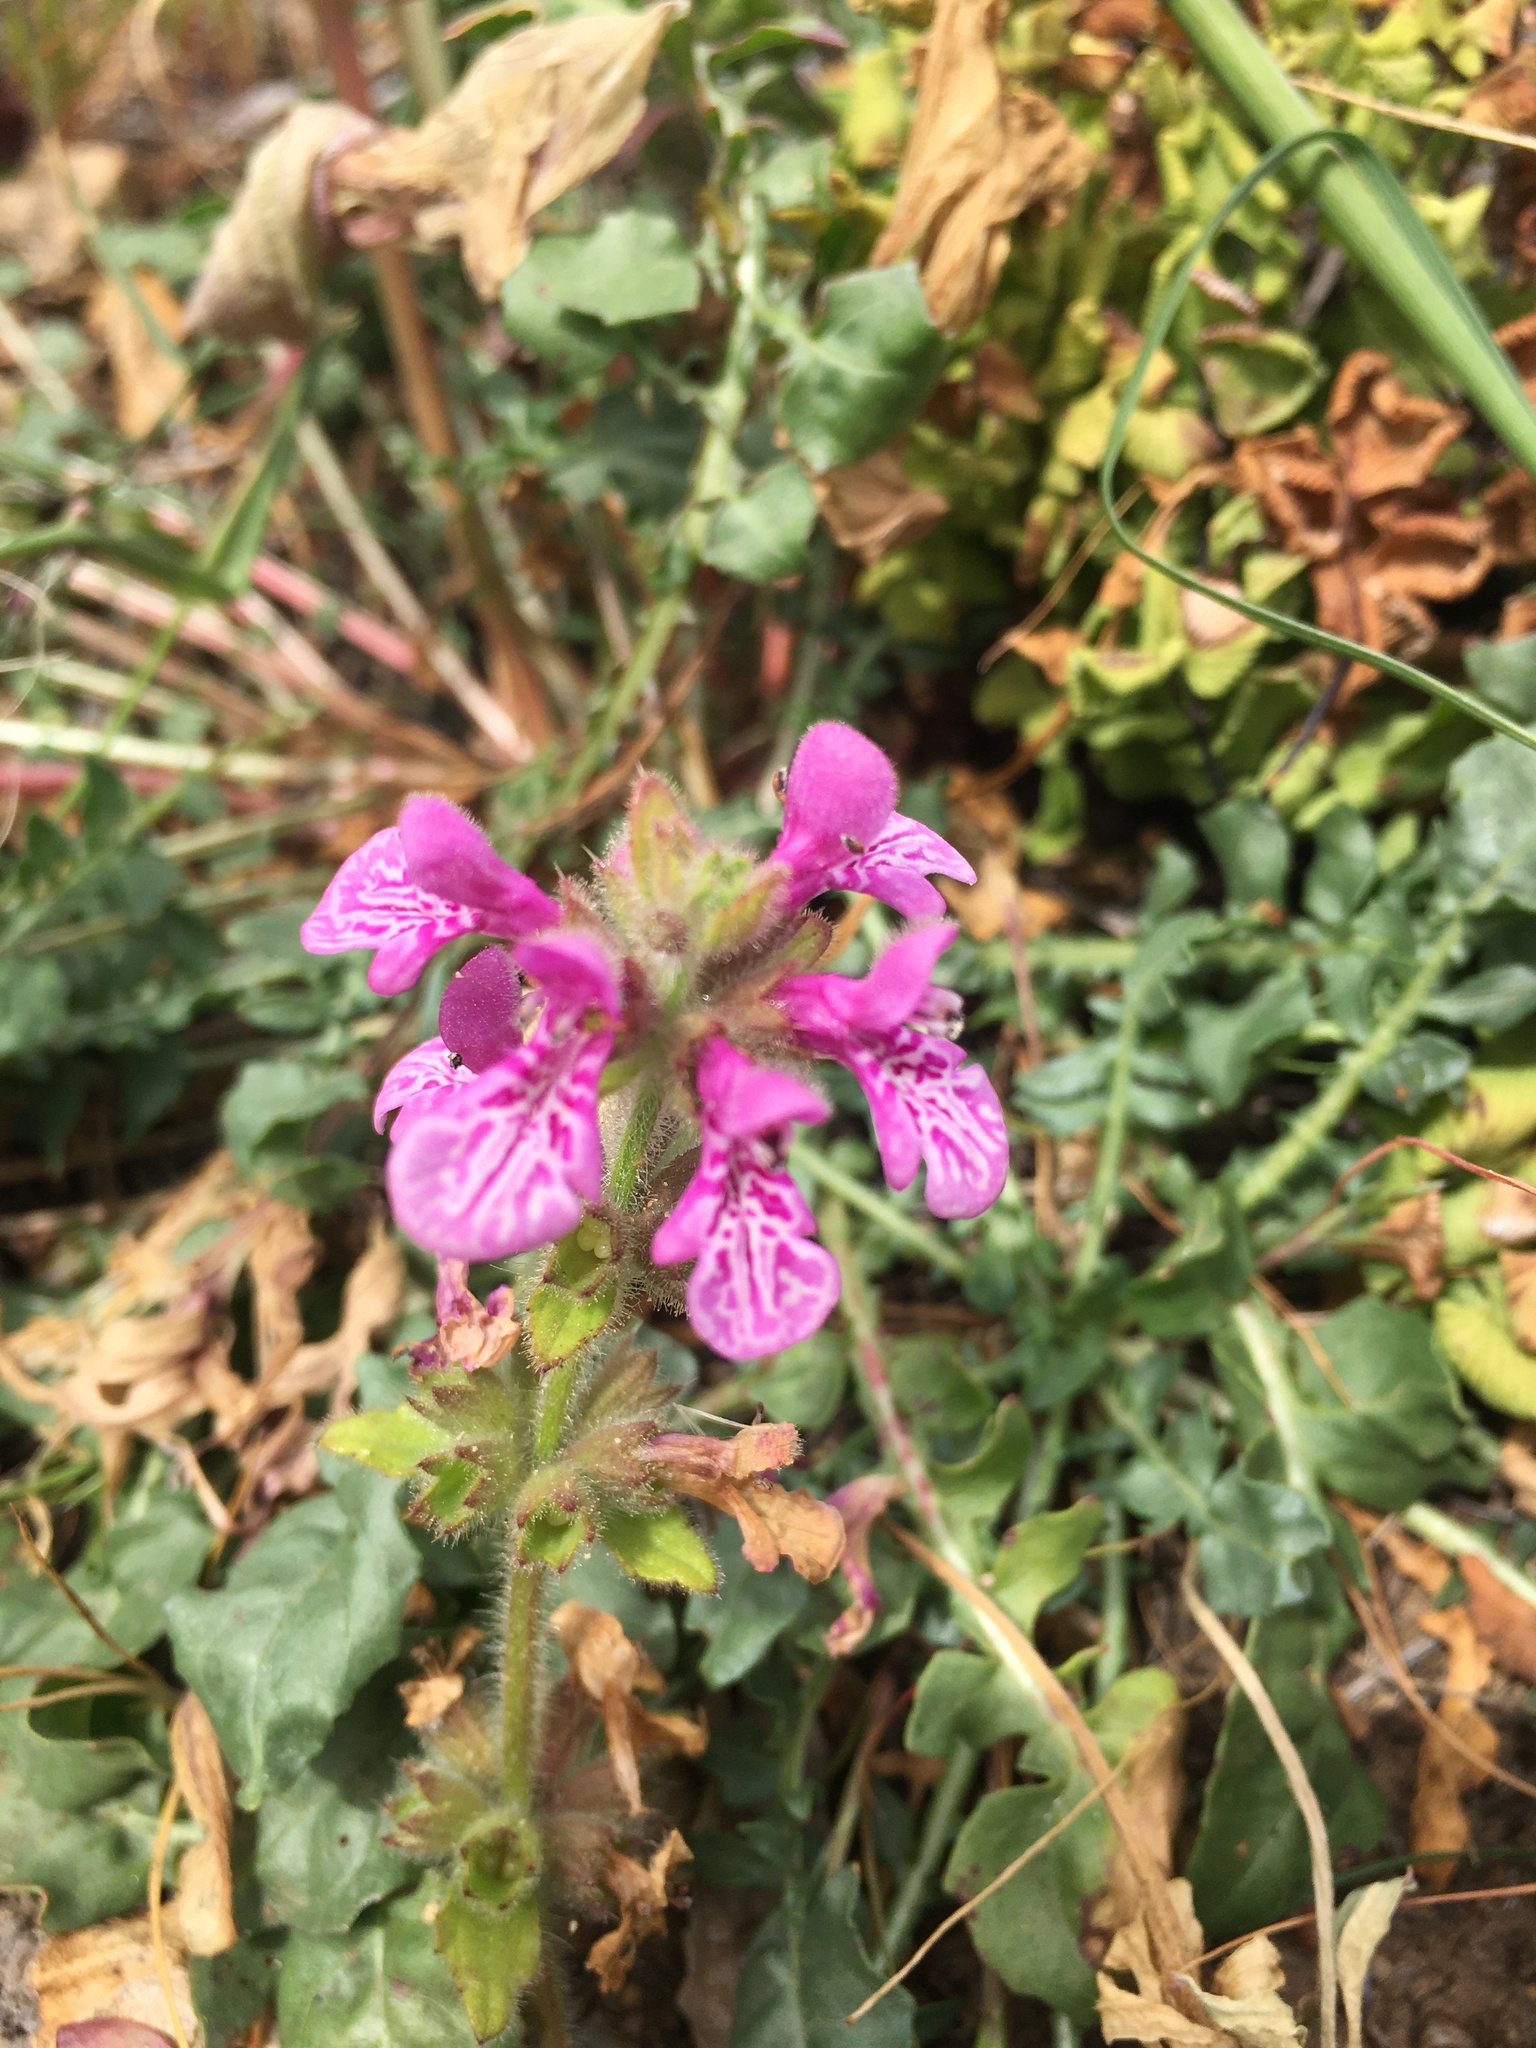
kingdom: Plantae
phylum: Tracheophyta
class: Magnoliopsida
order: Lamiales
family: Lamiaceae
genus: Stachys
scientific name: Stachys grandidentata
